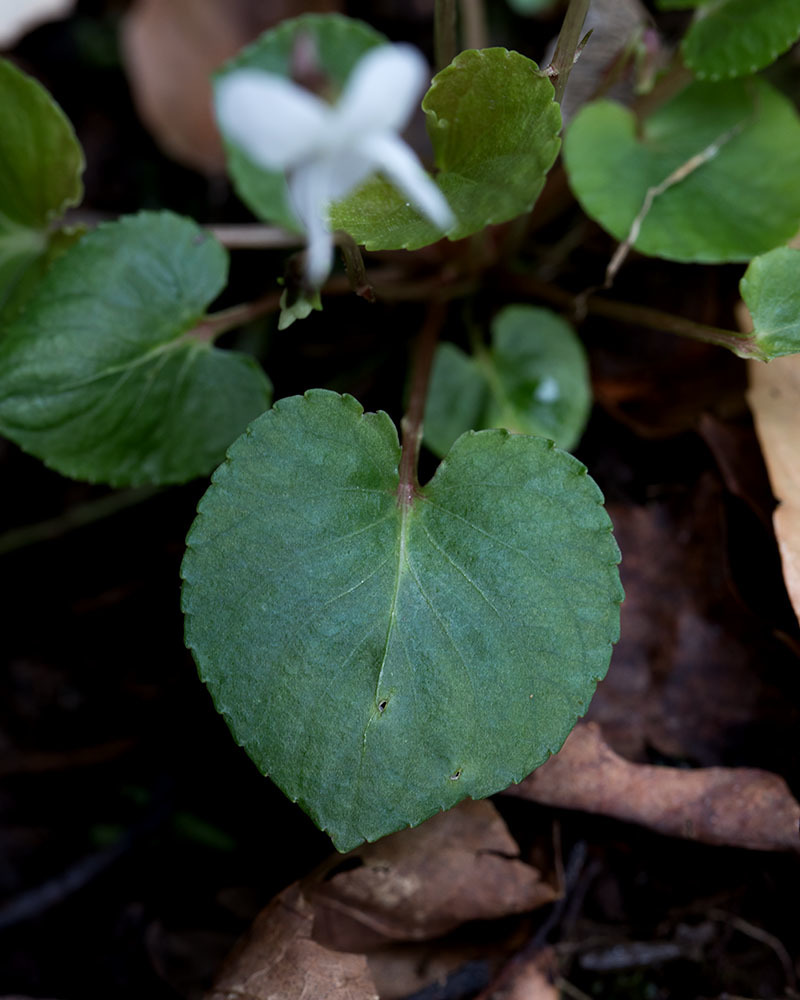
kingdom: Plantae
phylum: Tracheophyta
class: Magnoliopsida
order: Malpighiales
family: Violaceae
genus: Viola
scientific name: Viola blanda
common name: Sweet white violet
